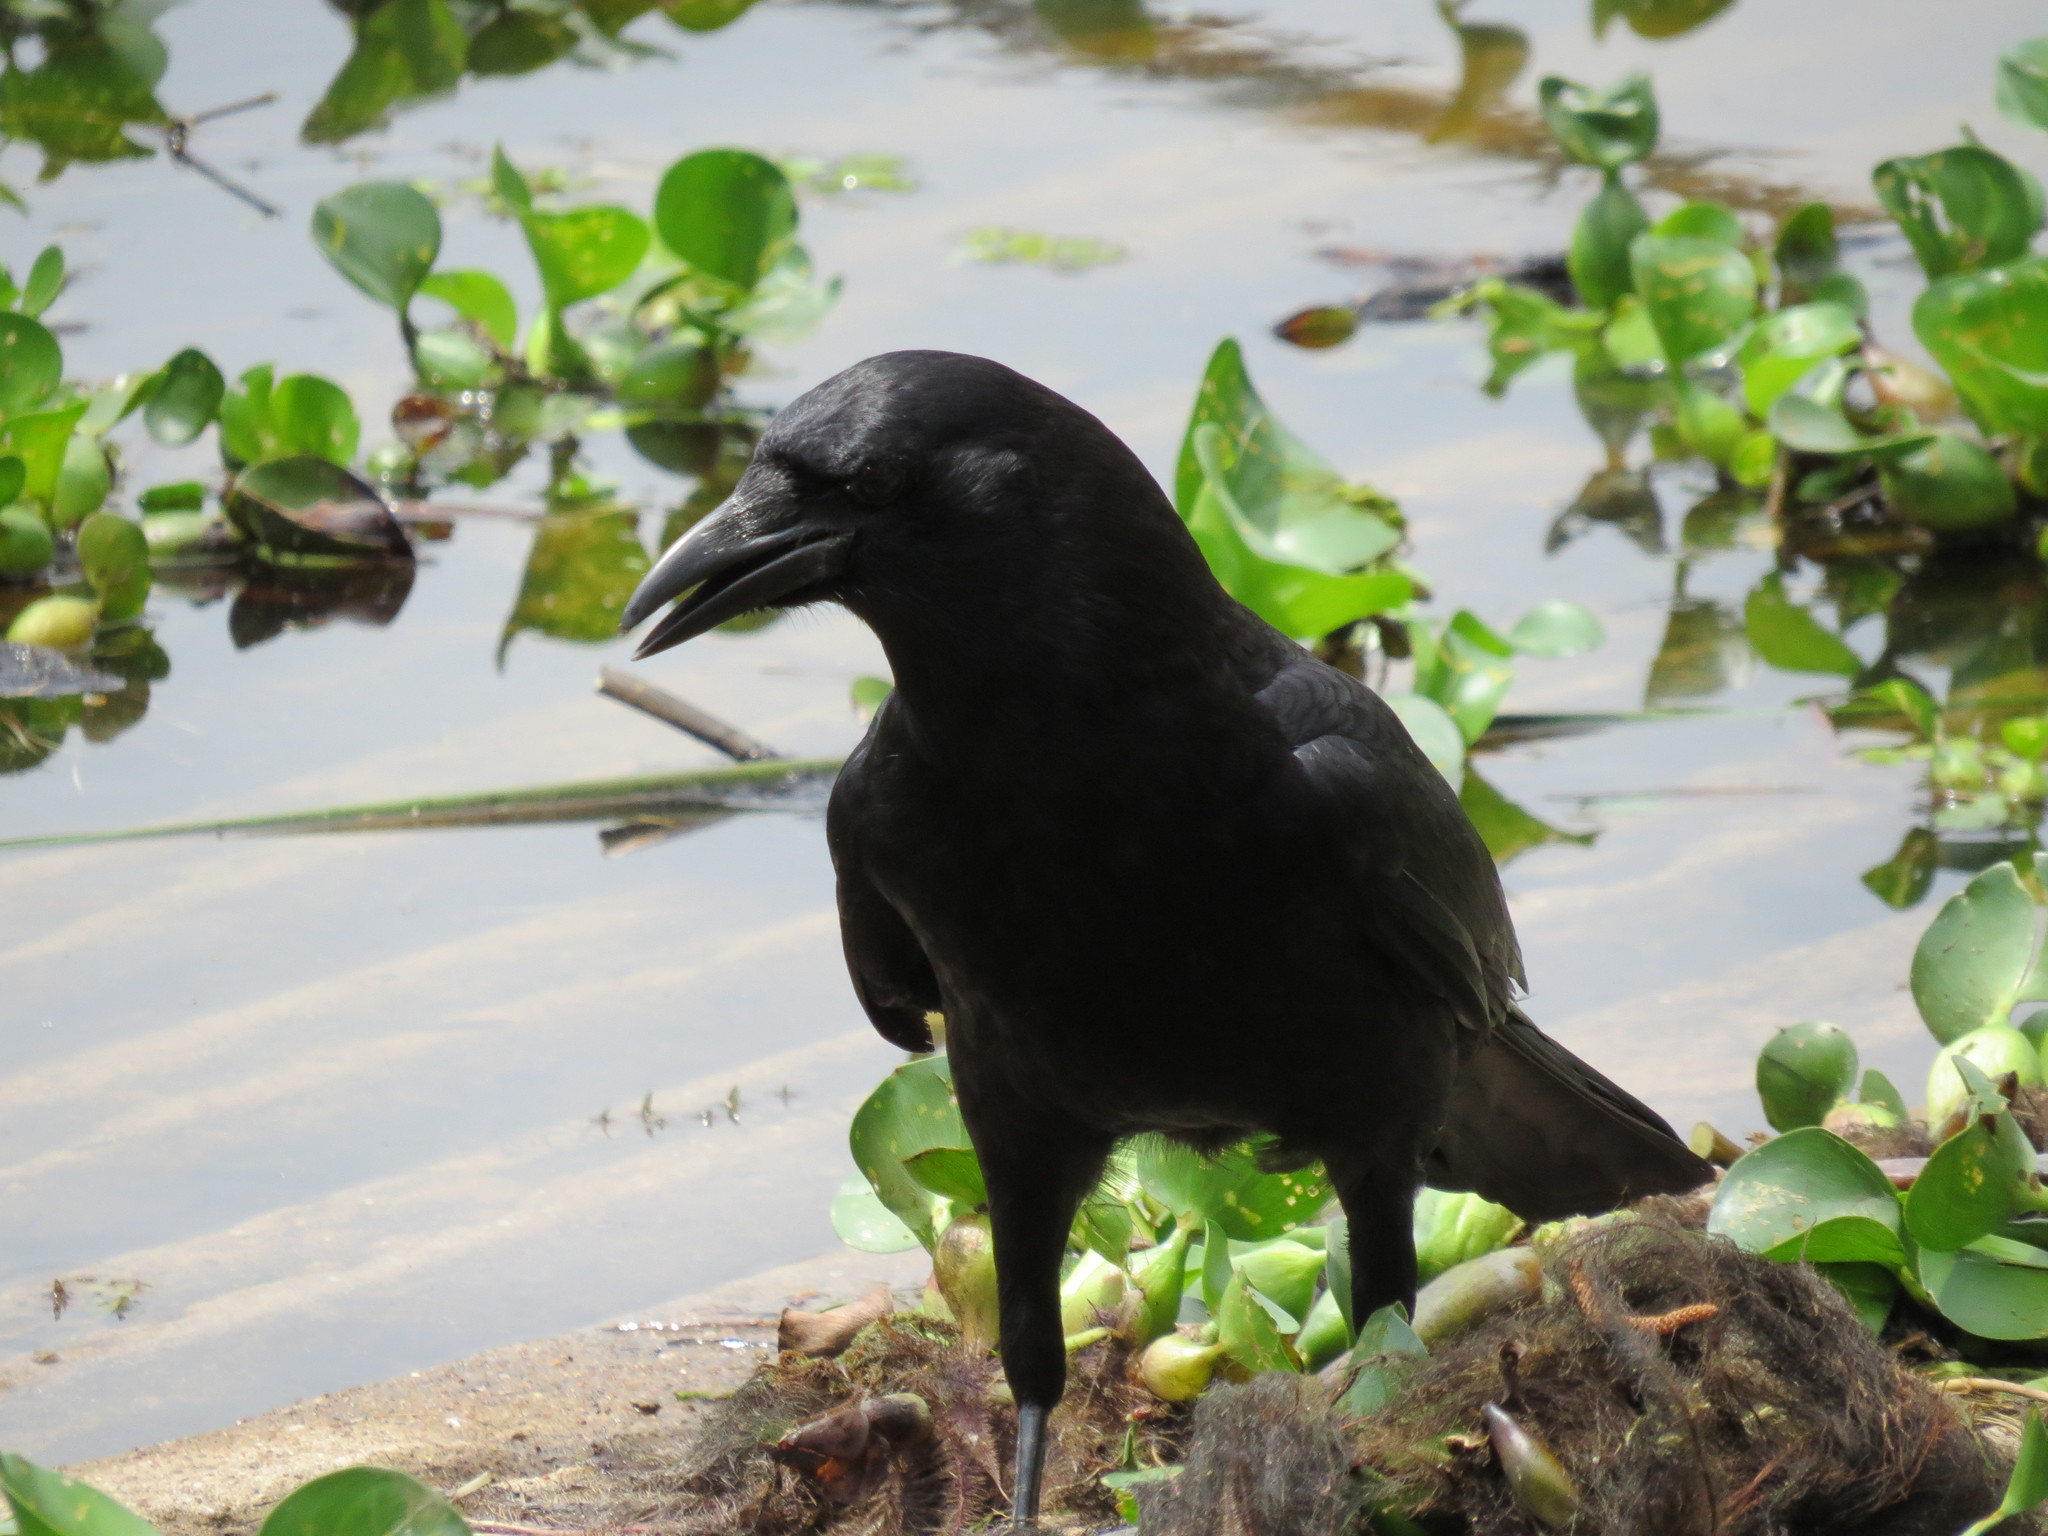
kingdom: Animalia
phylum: Chordata
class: Aves
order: Passeriformes
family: Corvidae
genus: Corvus
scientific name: Corvus brachyrhynchos
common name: American crow
